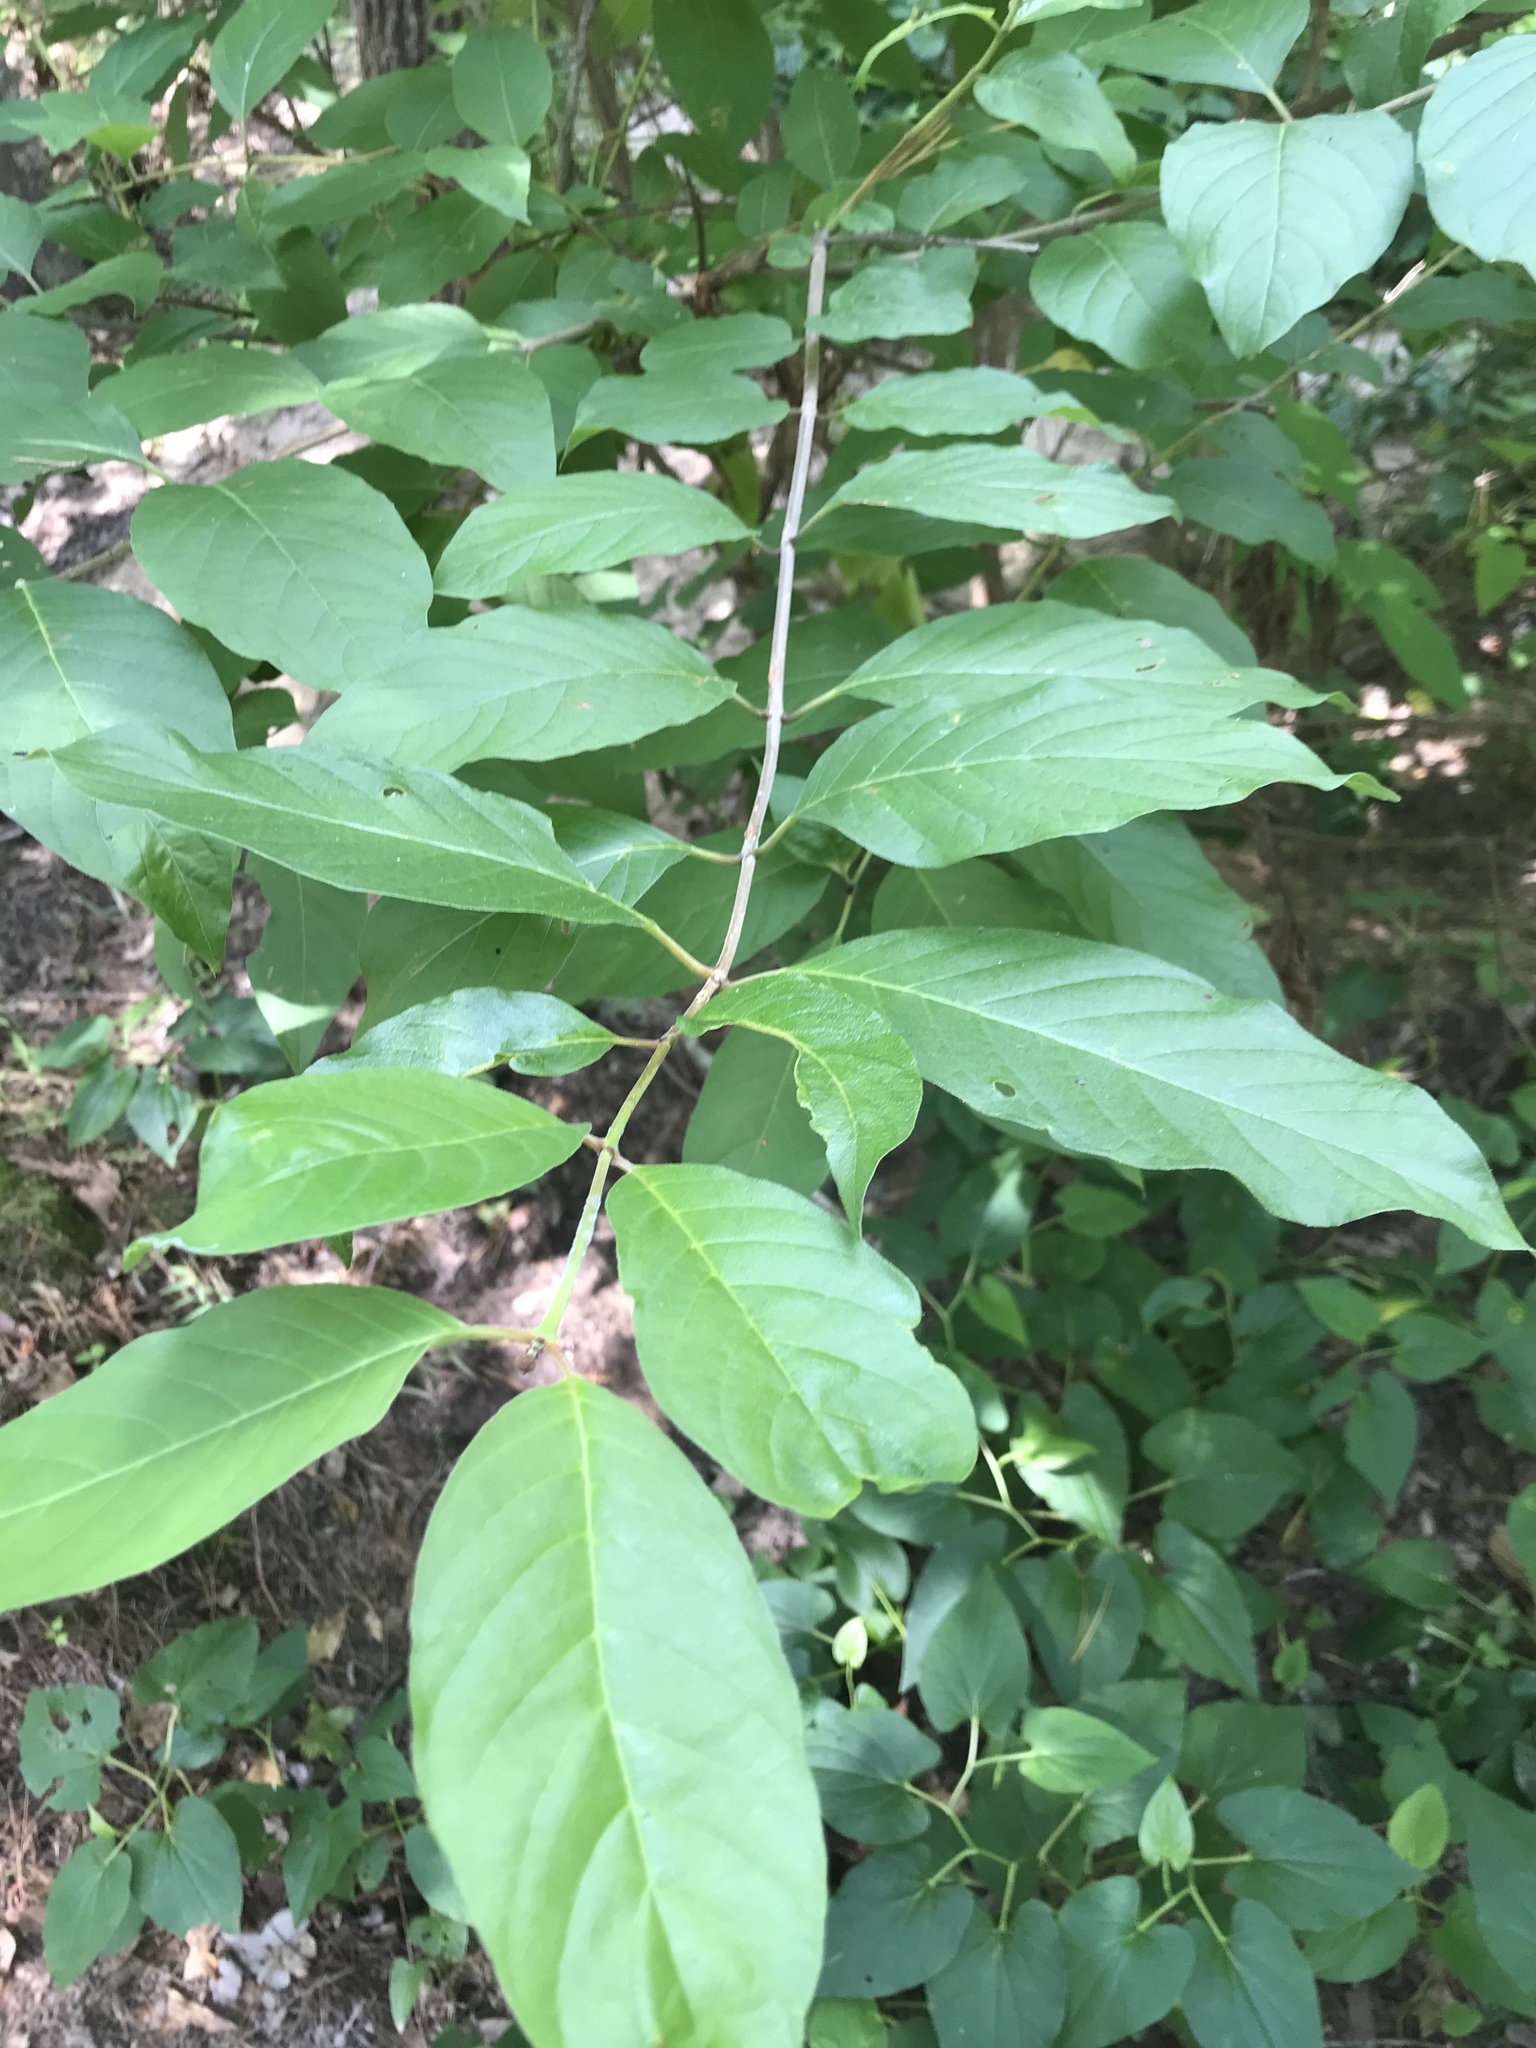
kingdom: Plantae
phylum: Tracheophyta
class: Magnoliopsida
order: Gentianales
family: Rubiaceae
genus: Cephalanthus
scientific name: Cephalanthus occidentalis
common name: Button-willow
